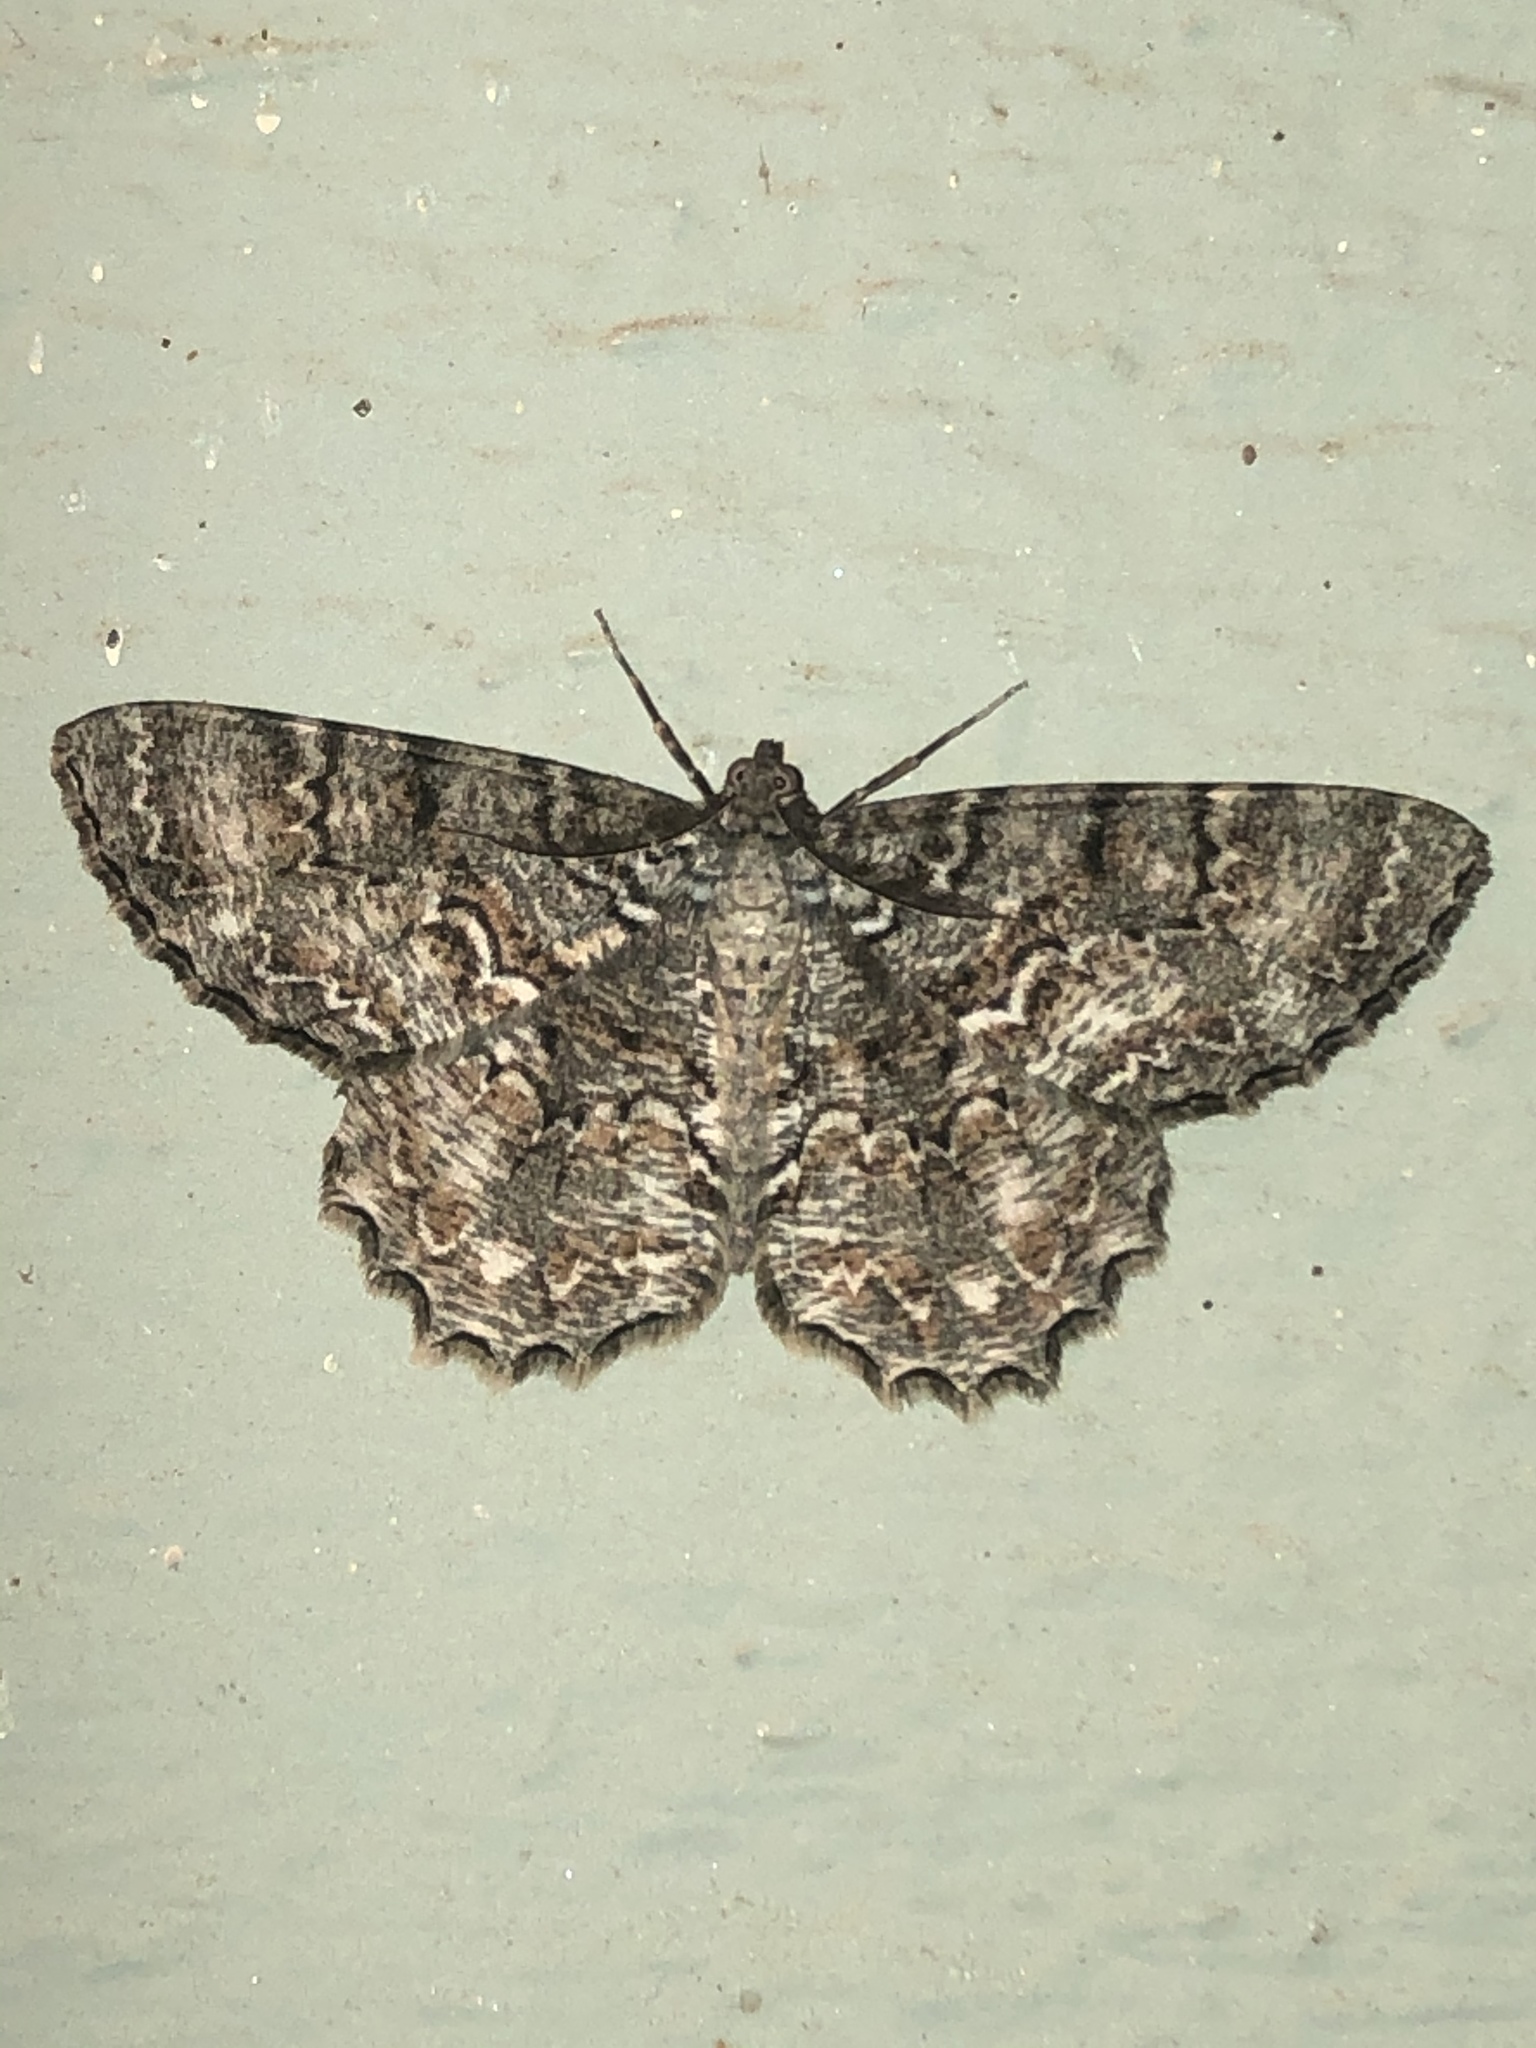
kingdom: Animalia
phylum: Arthropoda
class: Insecta
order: Lepidoptera
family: Geometridae
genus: Epimecis
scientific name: Epimecis hortaria
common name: Tulip-tree beauty
